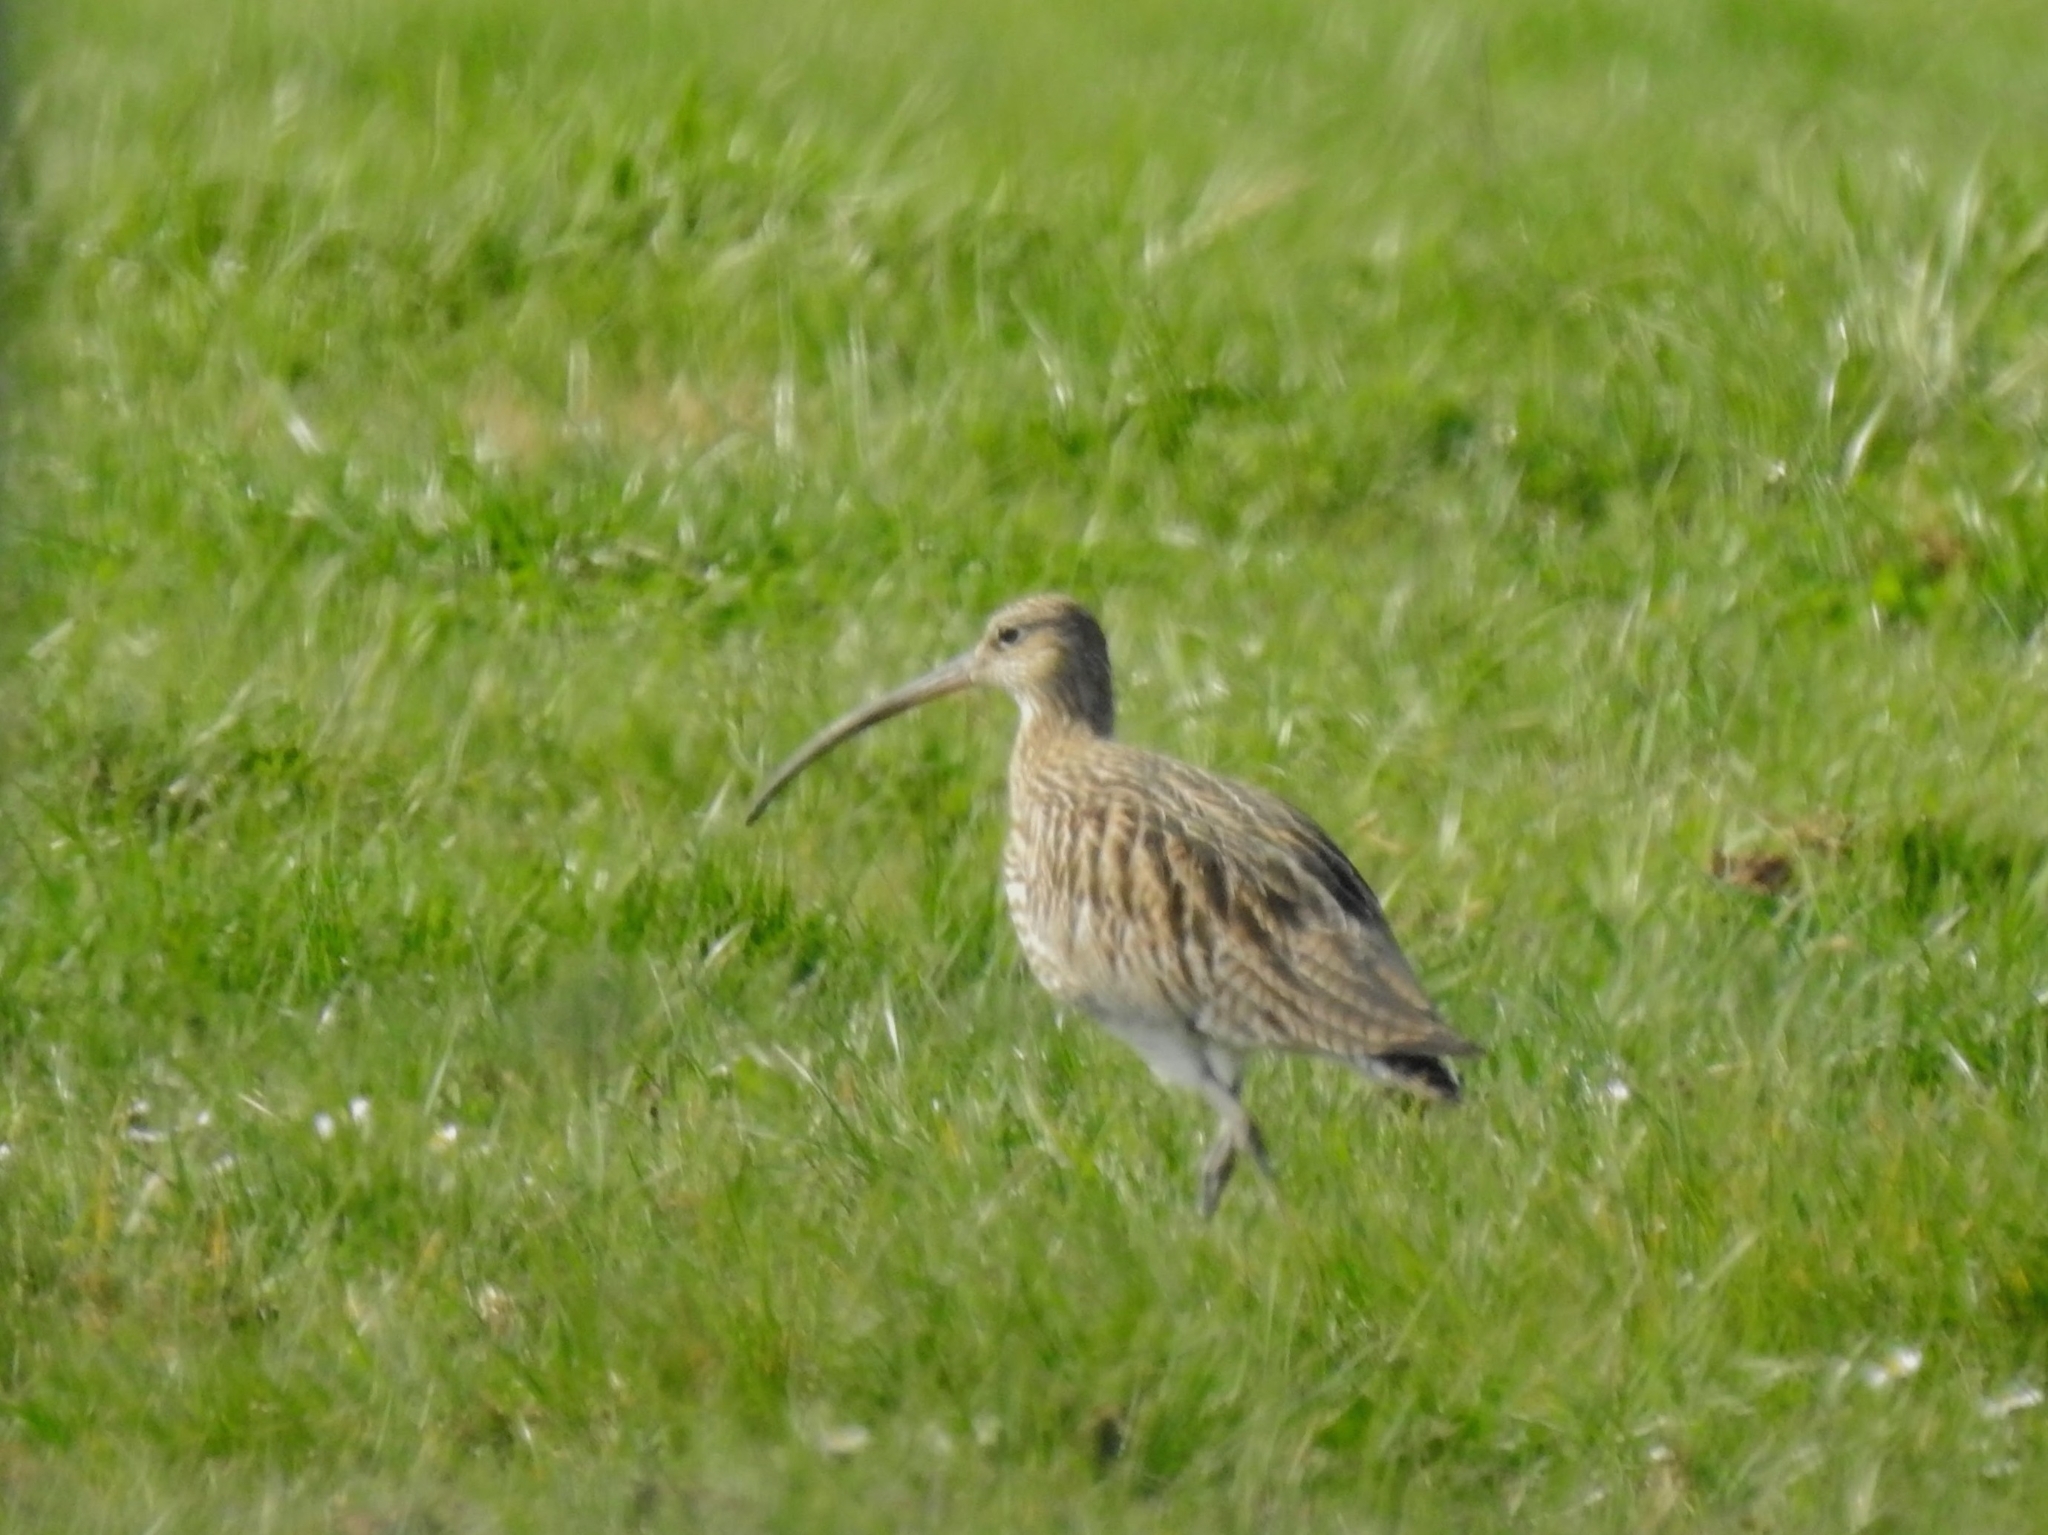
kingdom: Animalia
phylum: Chordata
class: Aves
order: Charadriiformes
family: Scolopacidae
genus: Numenius
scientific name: Numenius arquata
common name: Eurasian curlew
